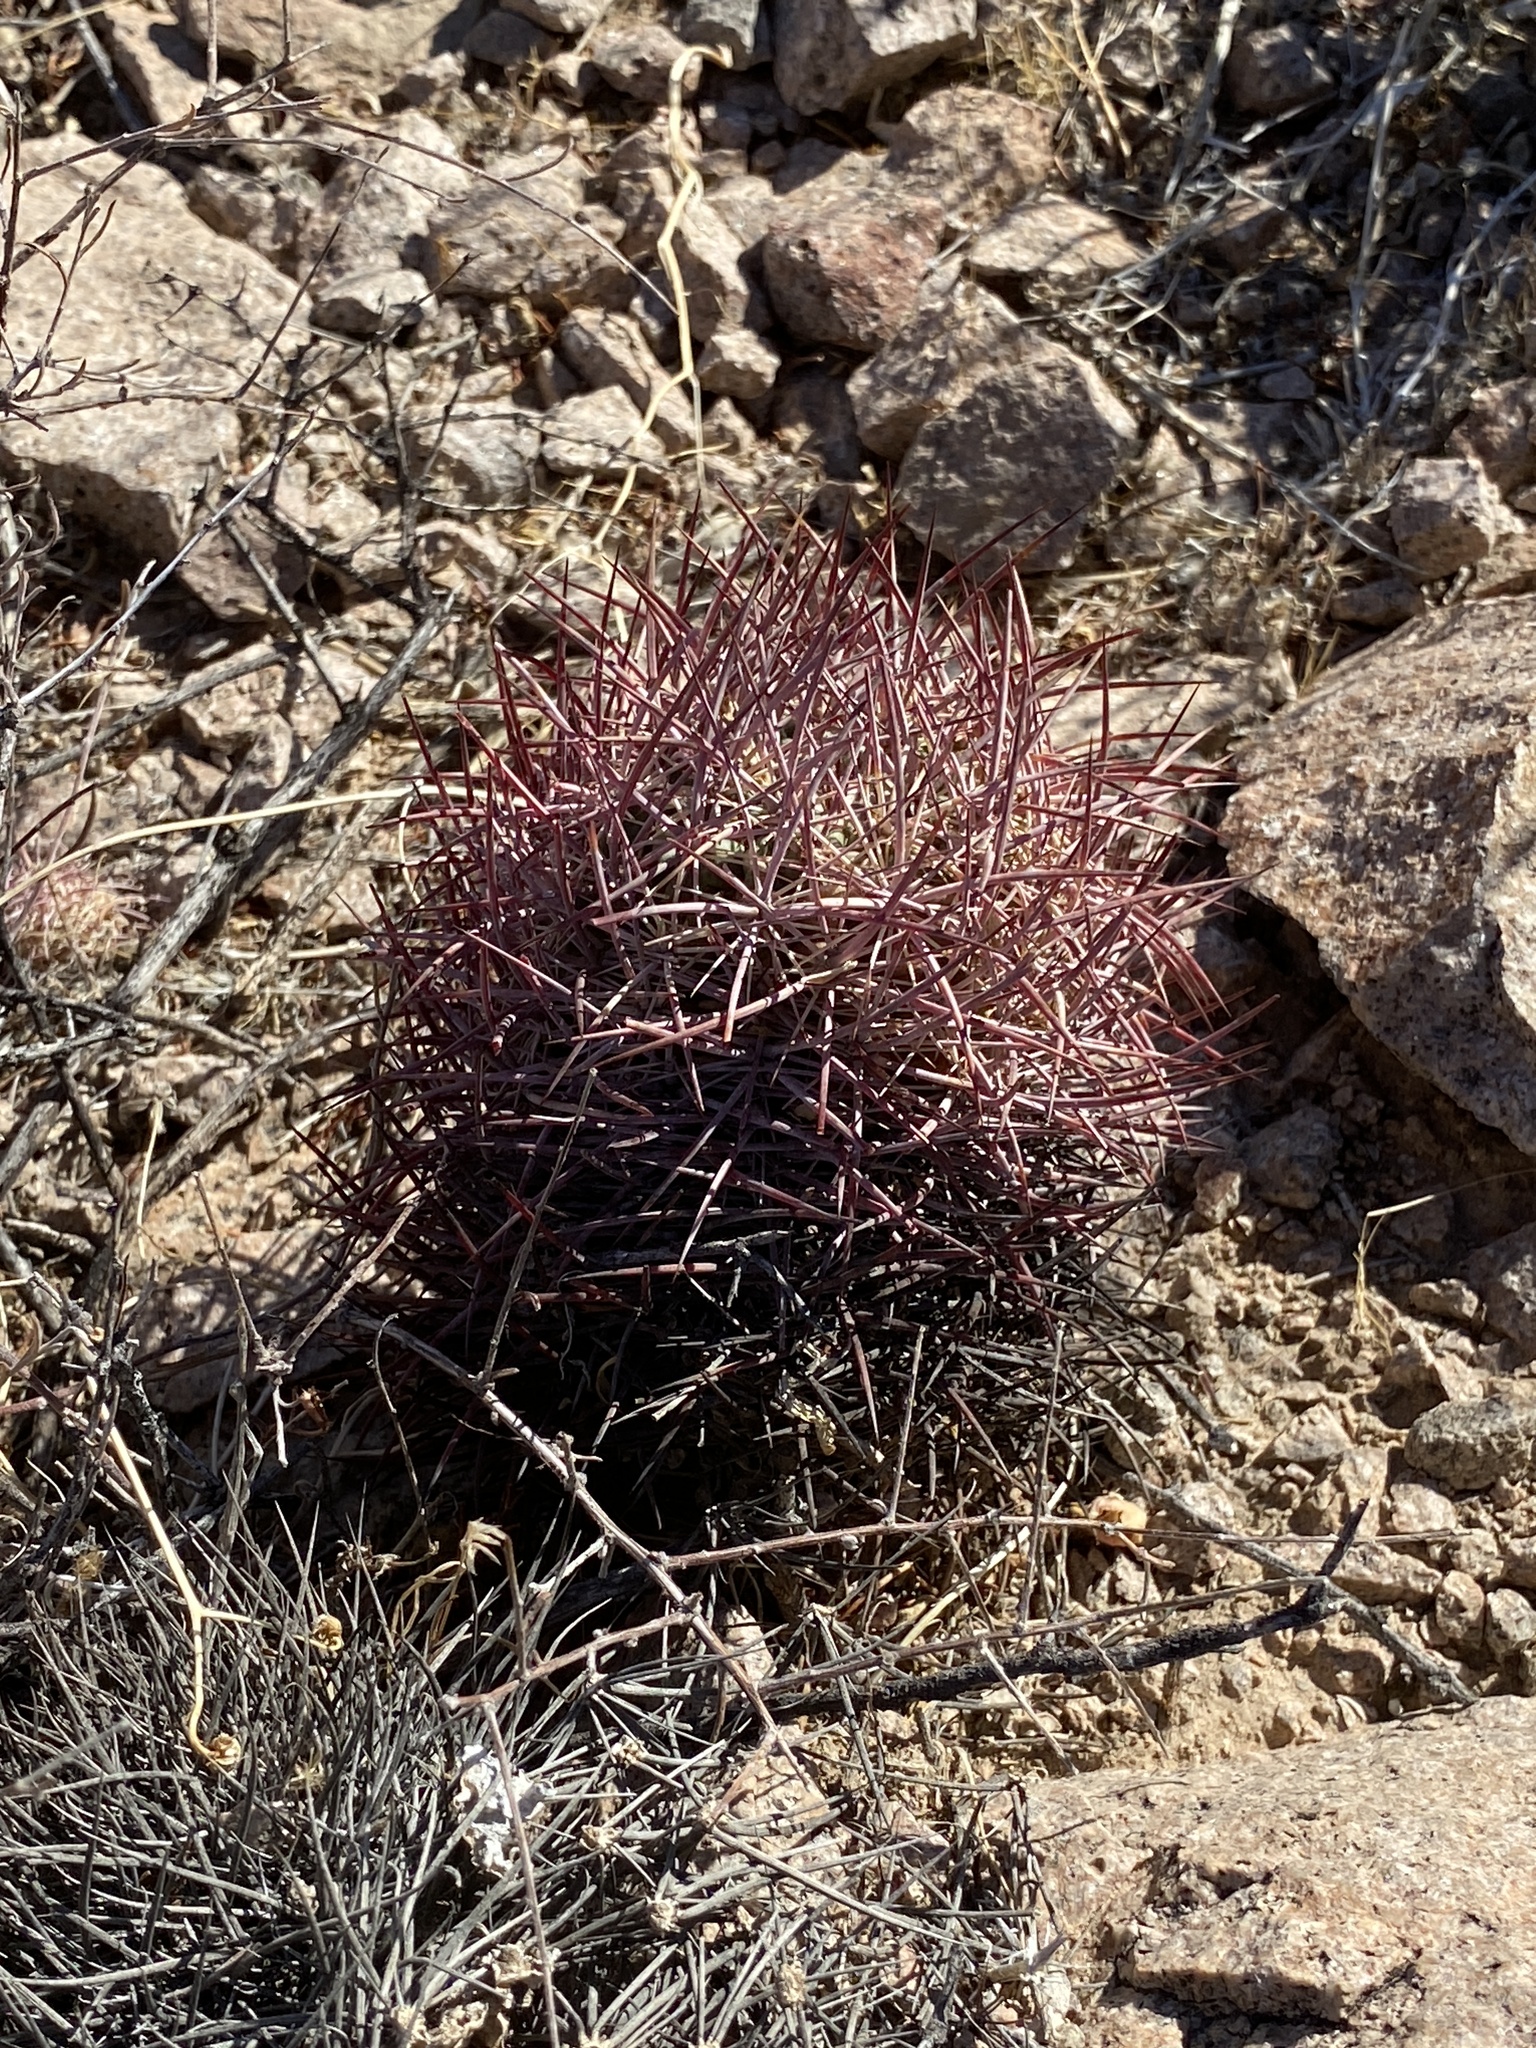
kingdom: Plantae
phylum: Tracheophyta
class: Magnoliopsida
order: Caryophyllales
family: Cactaceae
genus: Sclerocactus
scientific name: Sclerocactus johnsonii
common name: Eight-spine fishhook cactus
